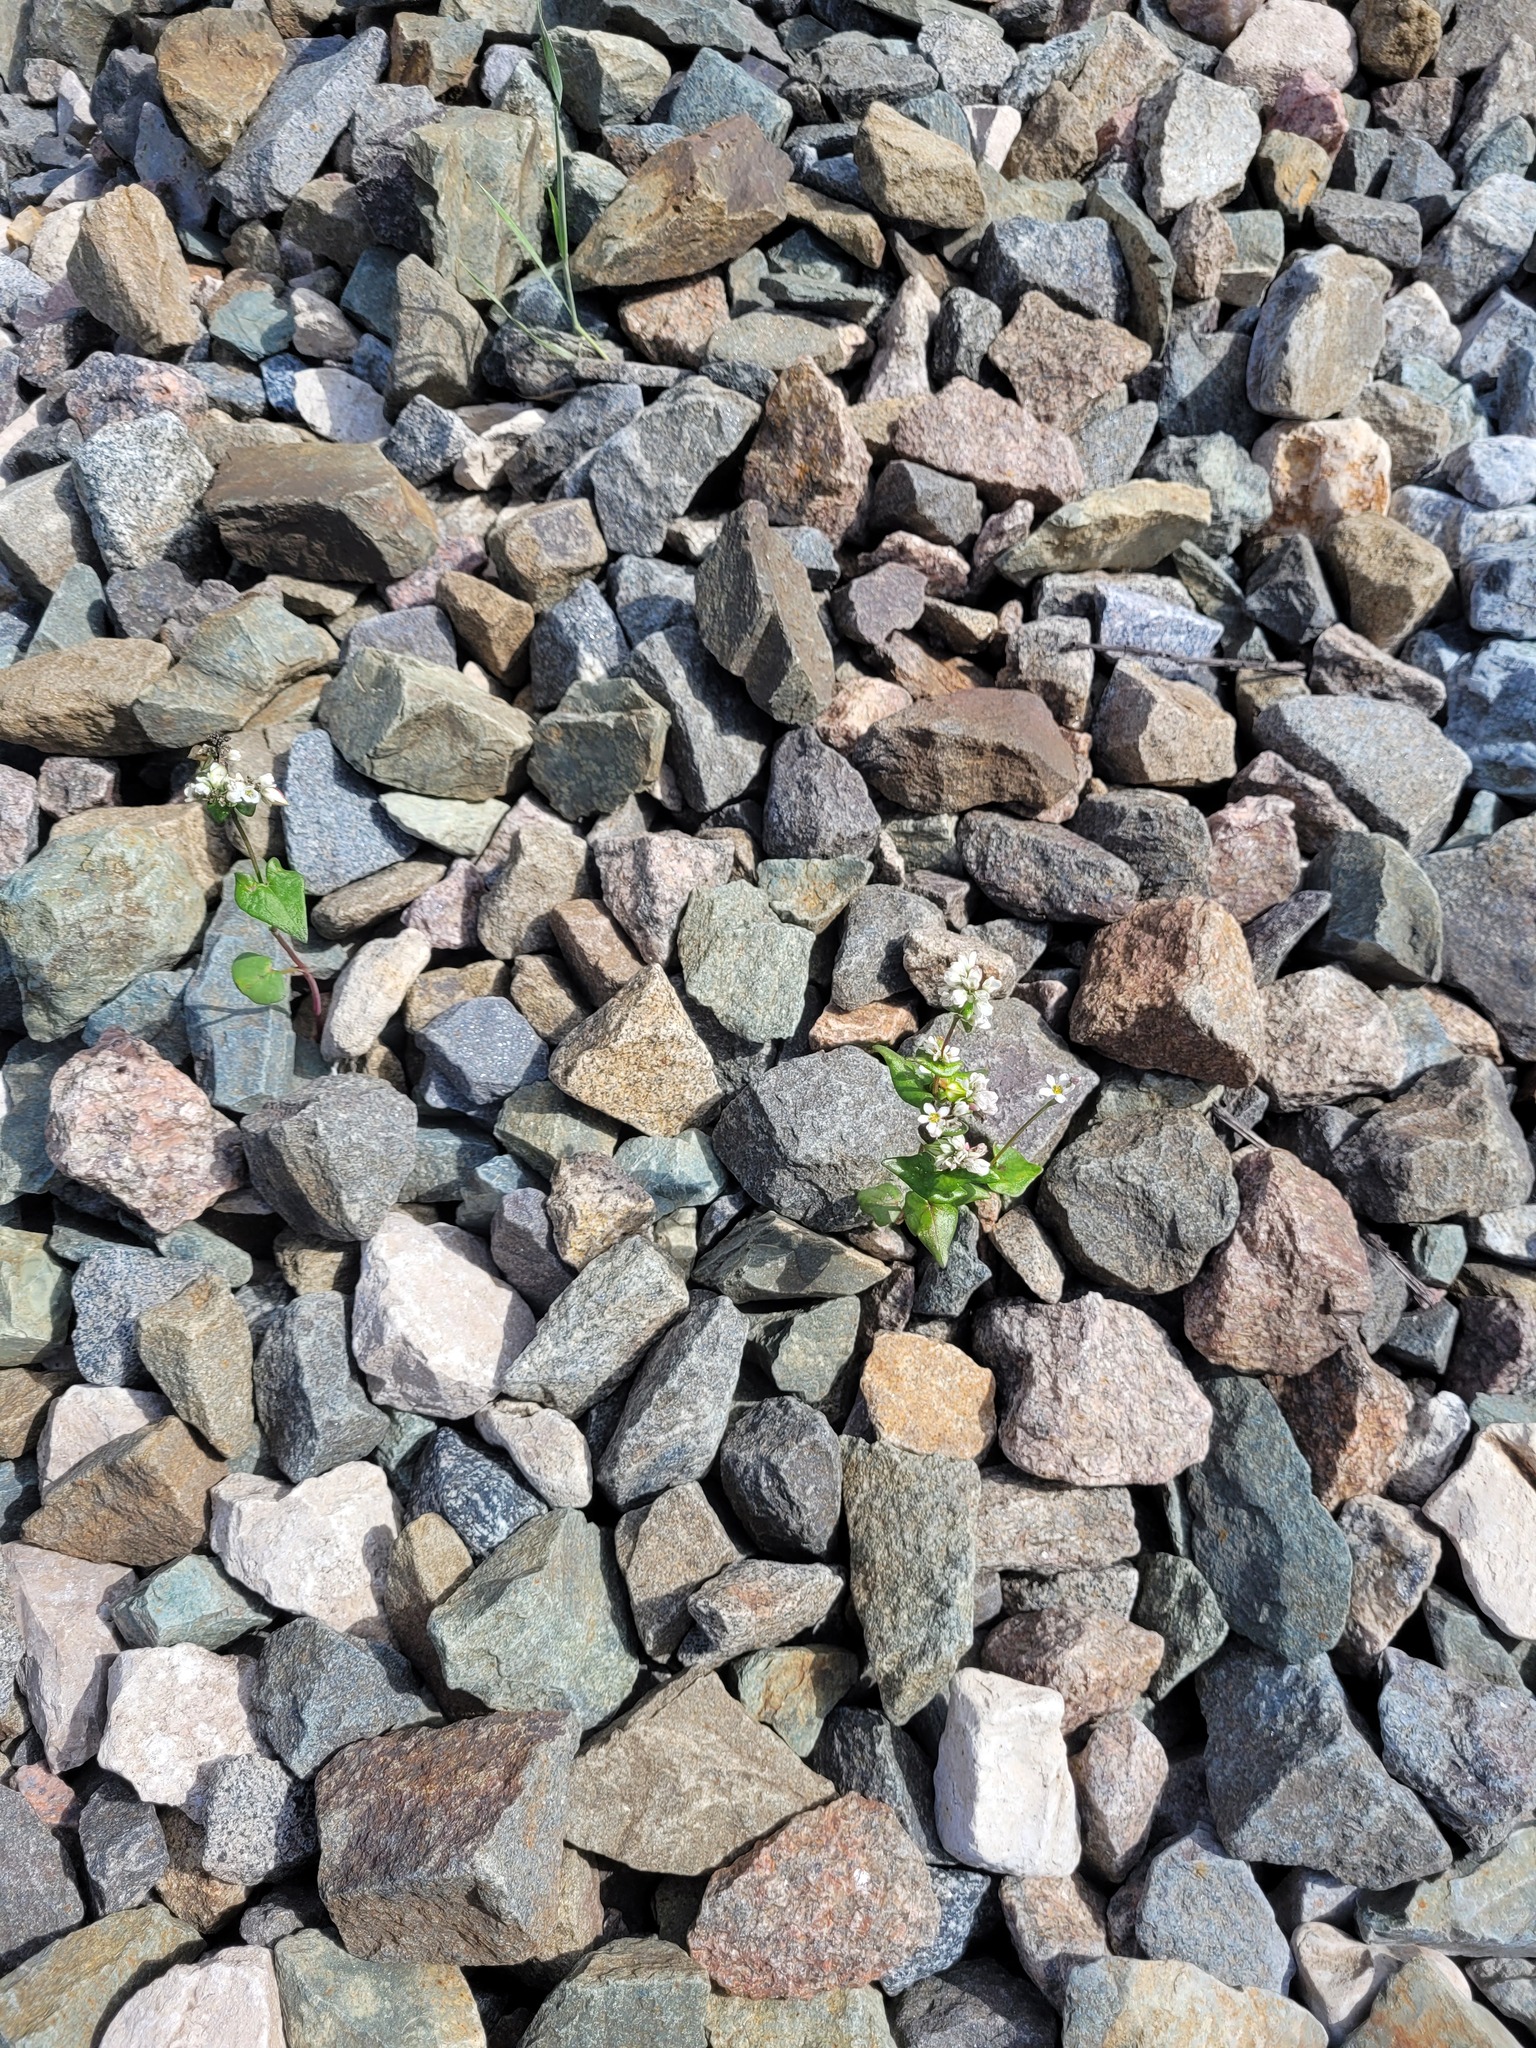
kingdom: Plantae
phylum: Tracheophyta
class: Magnoliopsida
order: Caryophyllales
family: Polygonaceae
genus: Fagopyrum
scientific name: Fagopyrum esculentum
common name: Buckwheat
